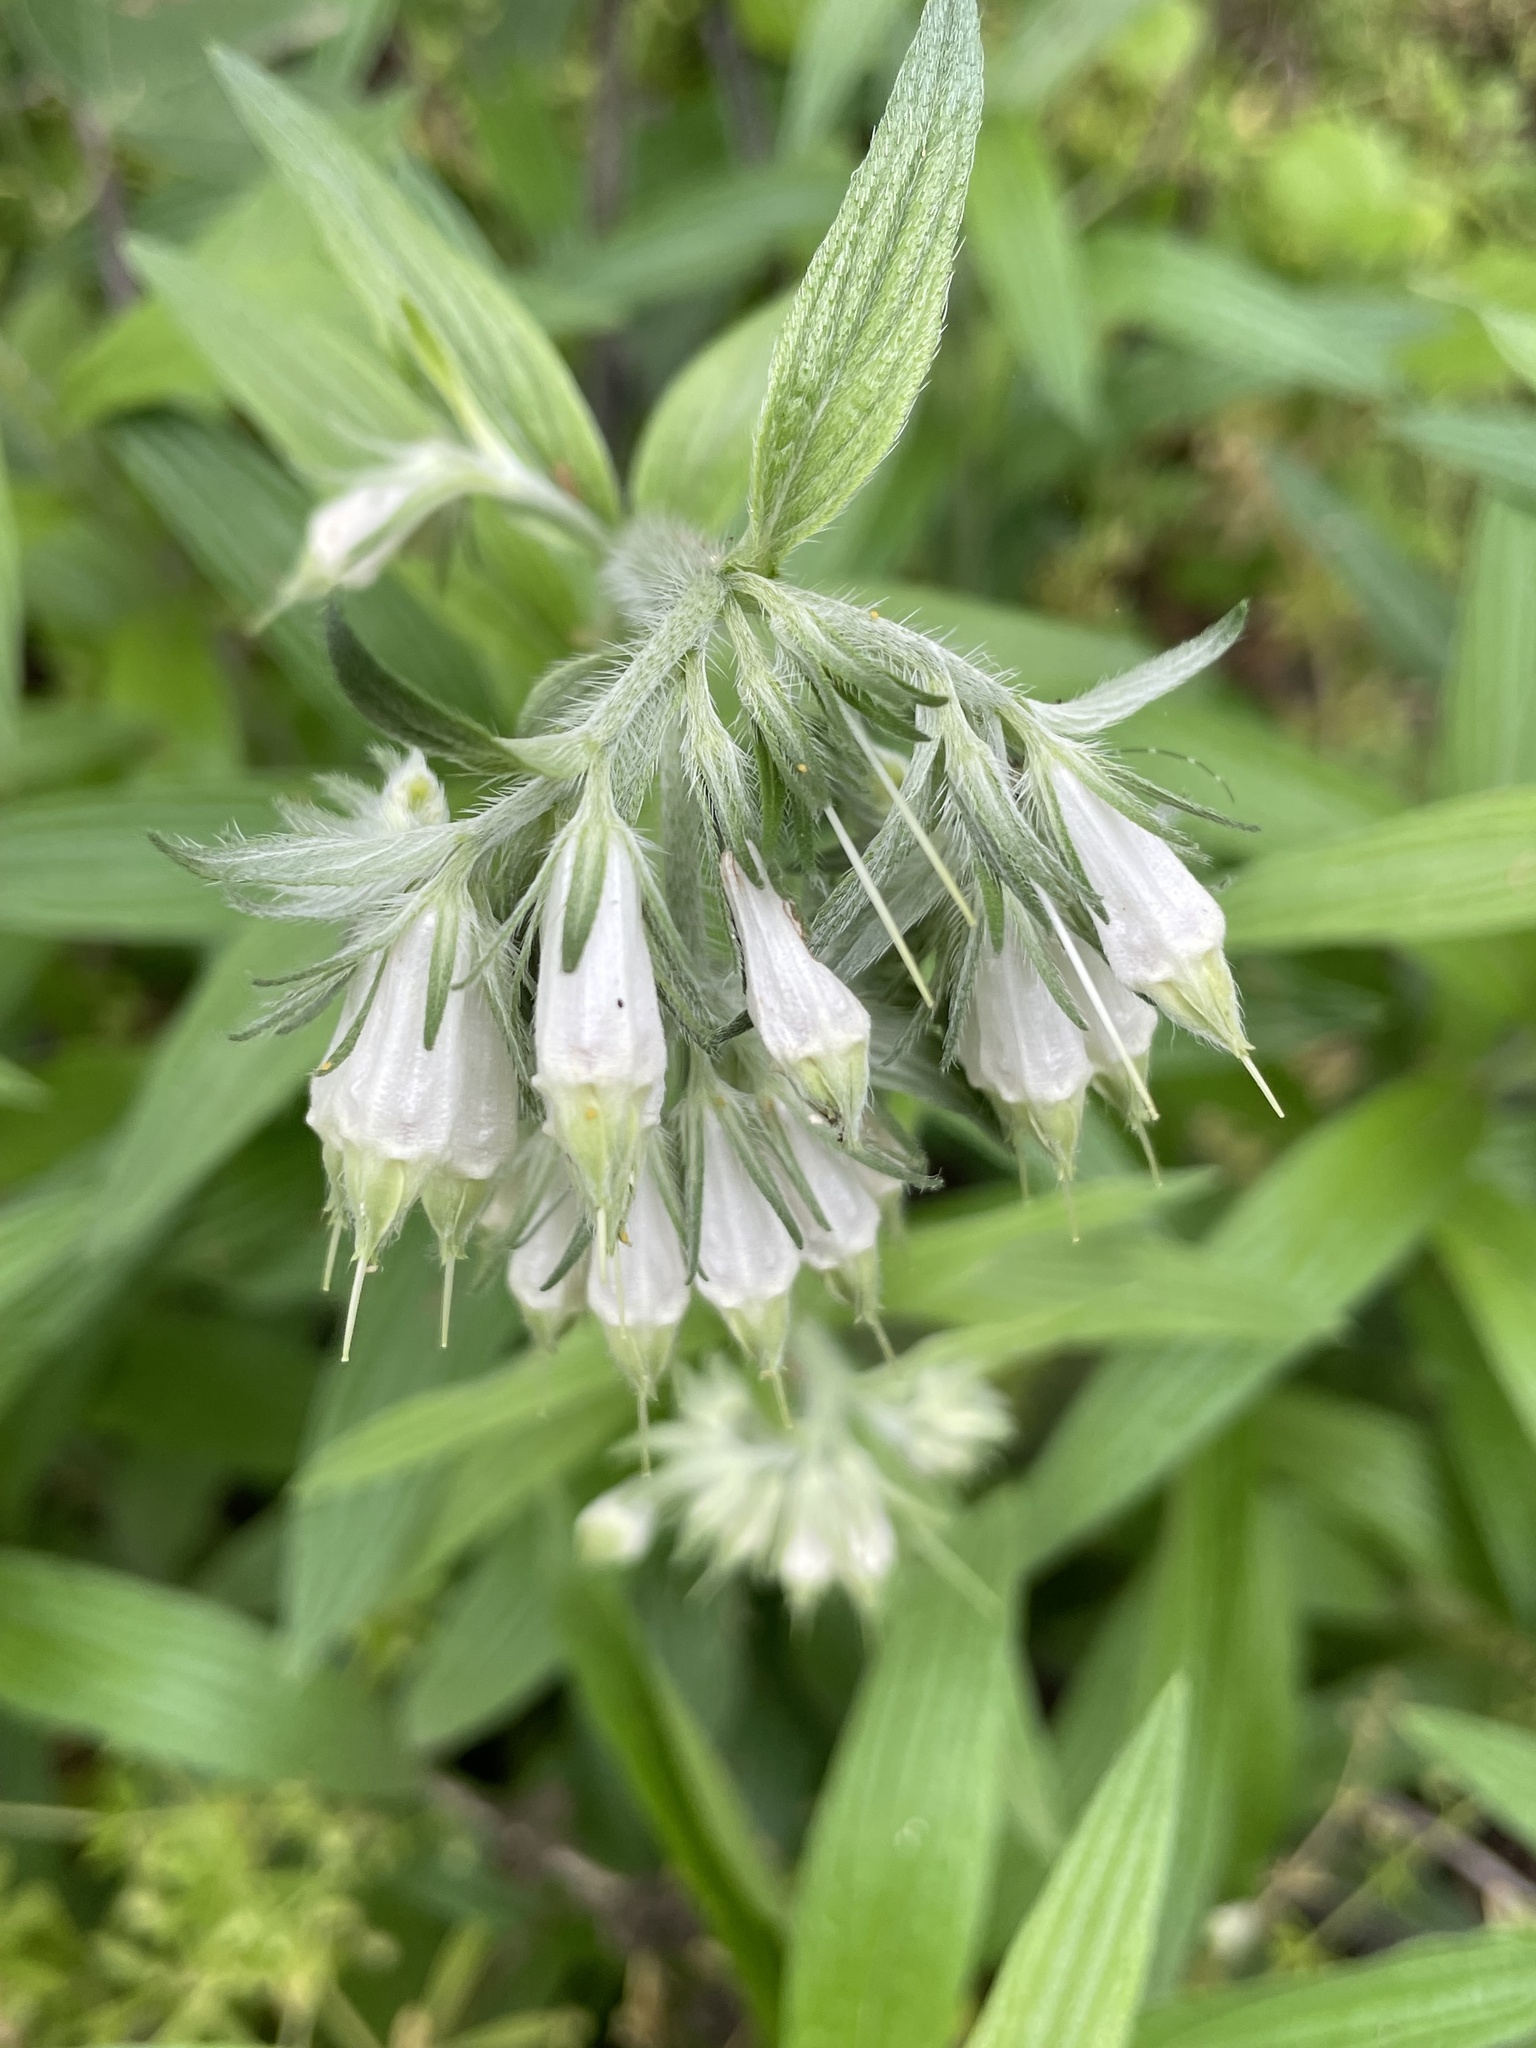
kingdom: Plantae
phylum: Tracheophyta
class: Magnoliopsida
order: Boraginales
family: Boraginaceae
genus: Lithospermum
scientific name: Lithospermum caroliniense
